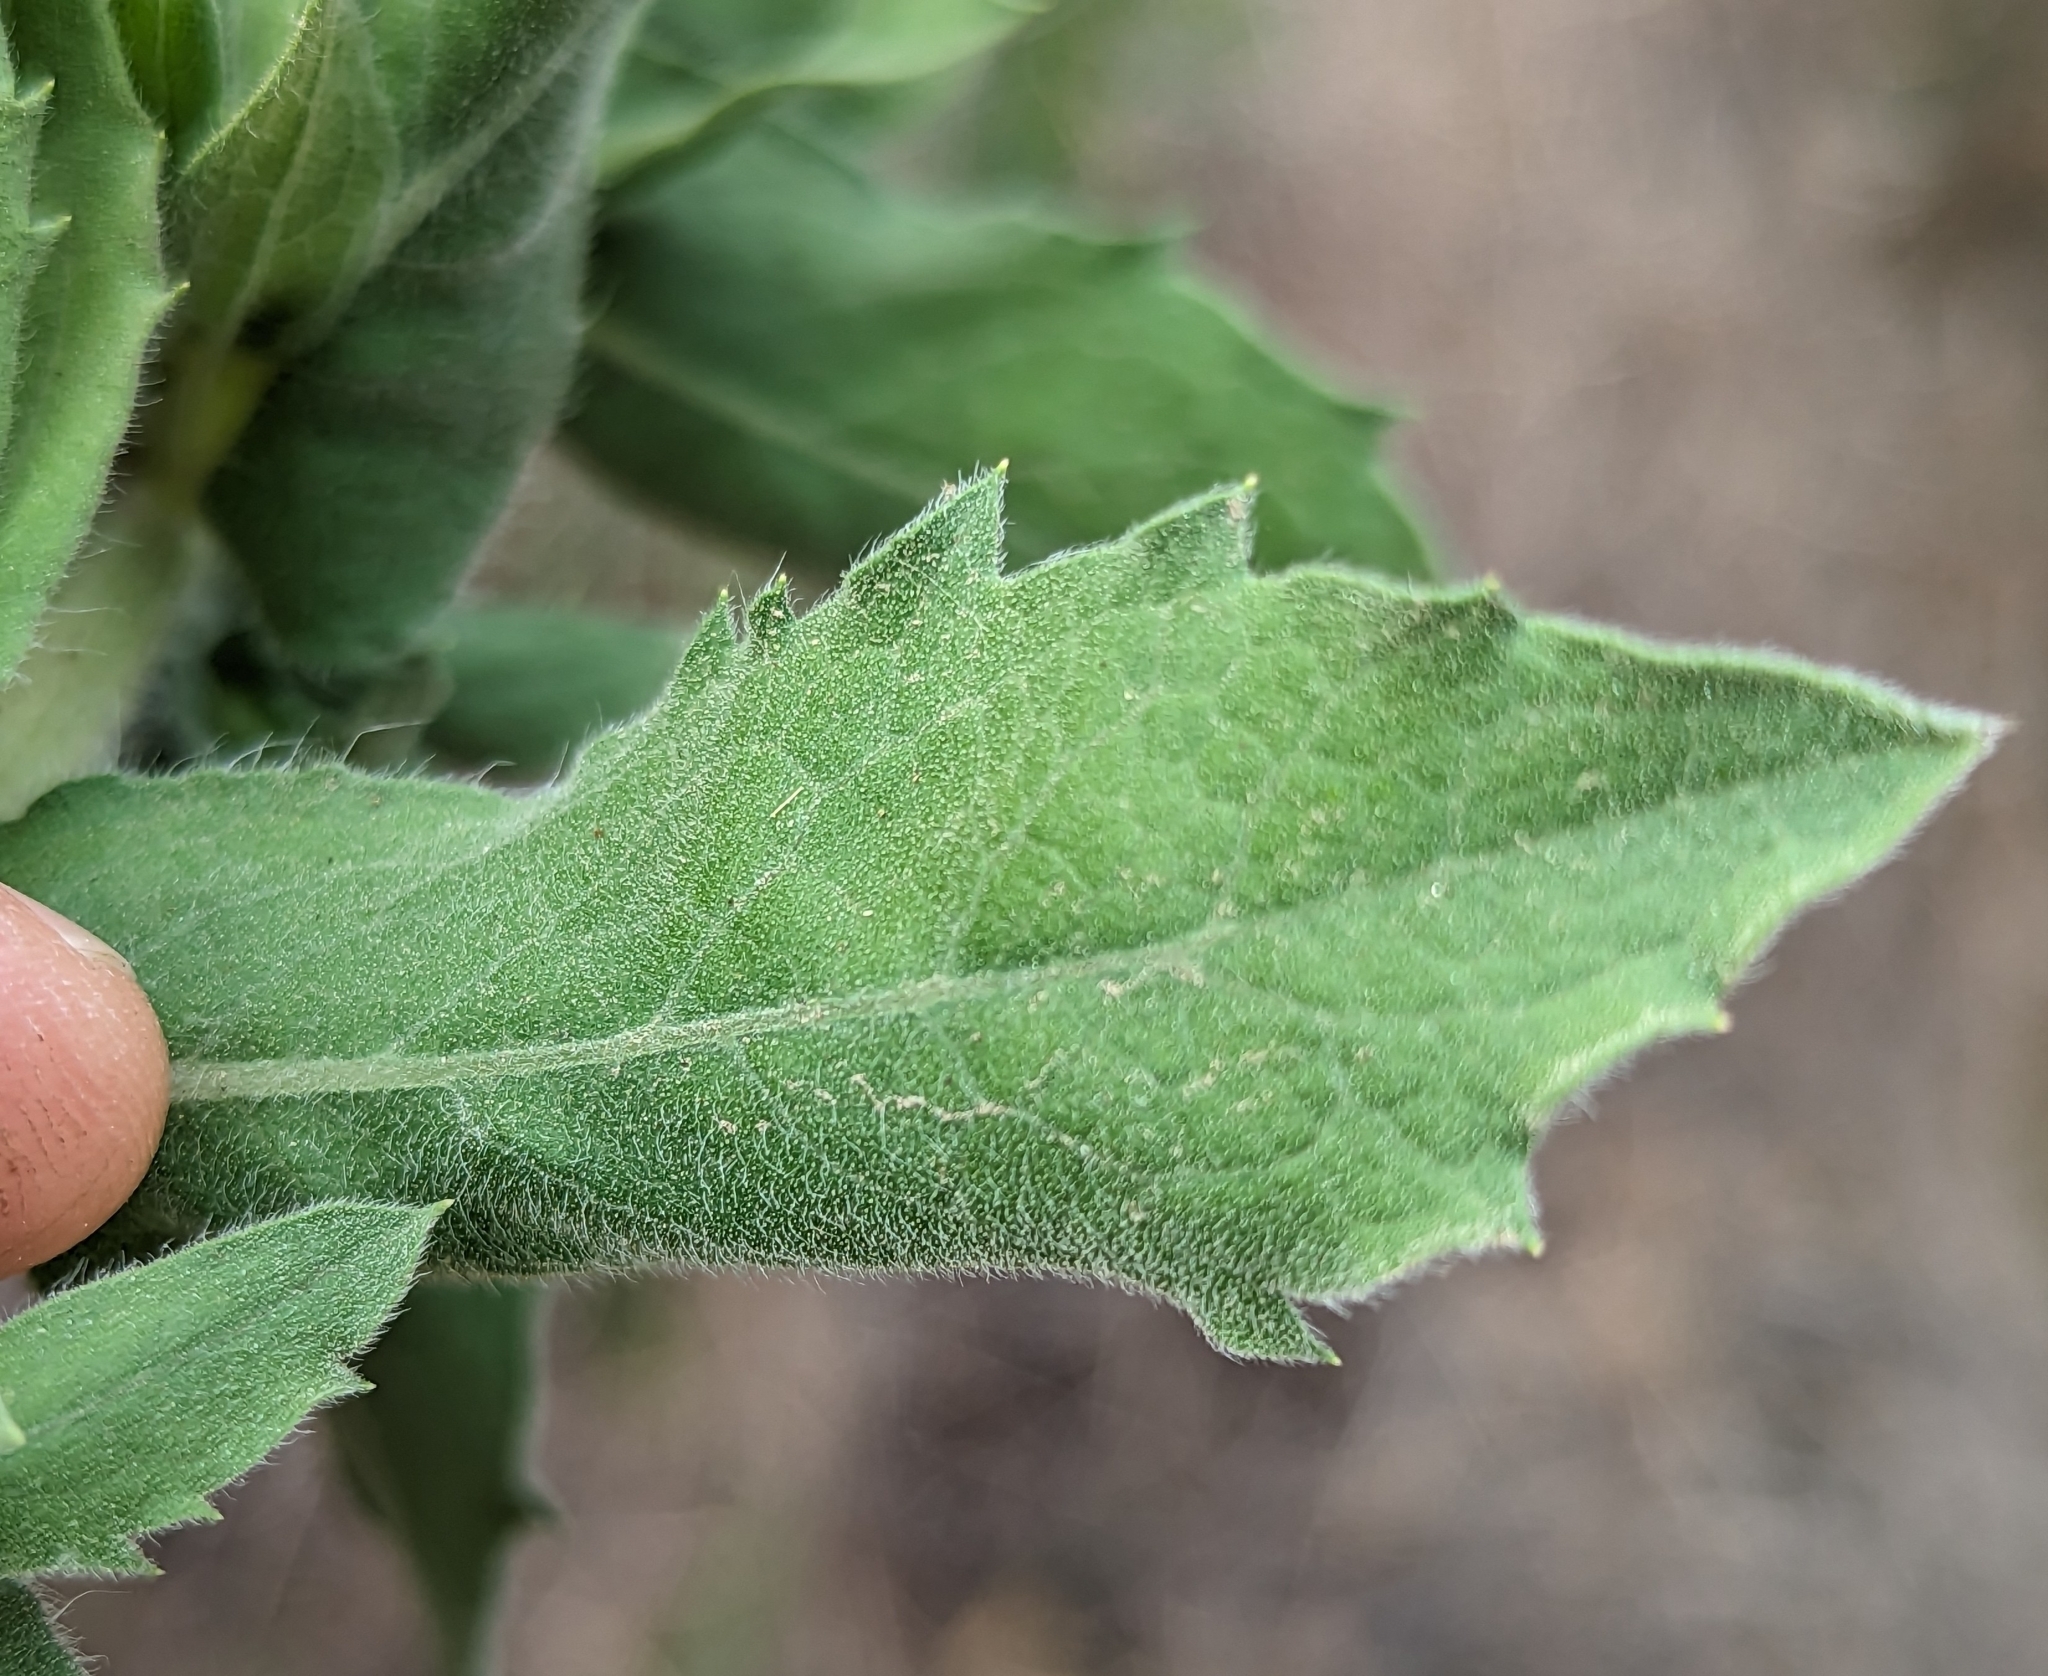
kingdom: Plantae
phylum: Tracheophyta
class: Magnoliopsida
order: Asterales
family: Asteraceae
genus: Heterotheca
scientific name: Heterotheca grandiflora
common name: Telegraphweed
